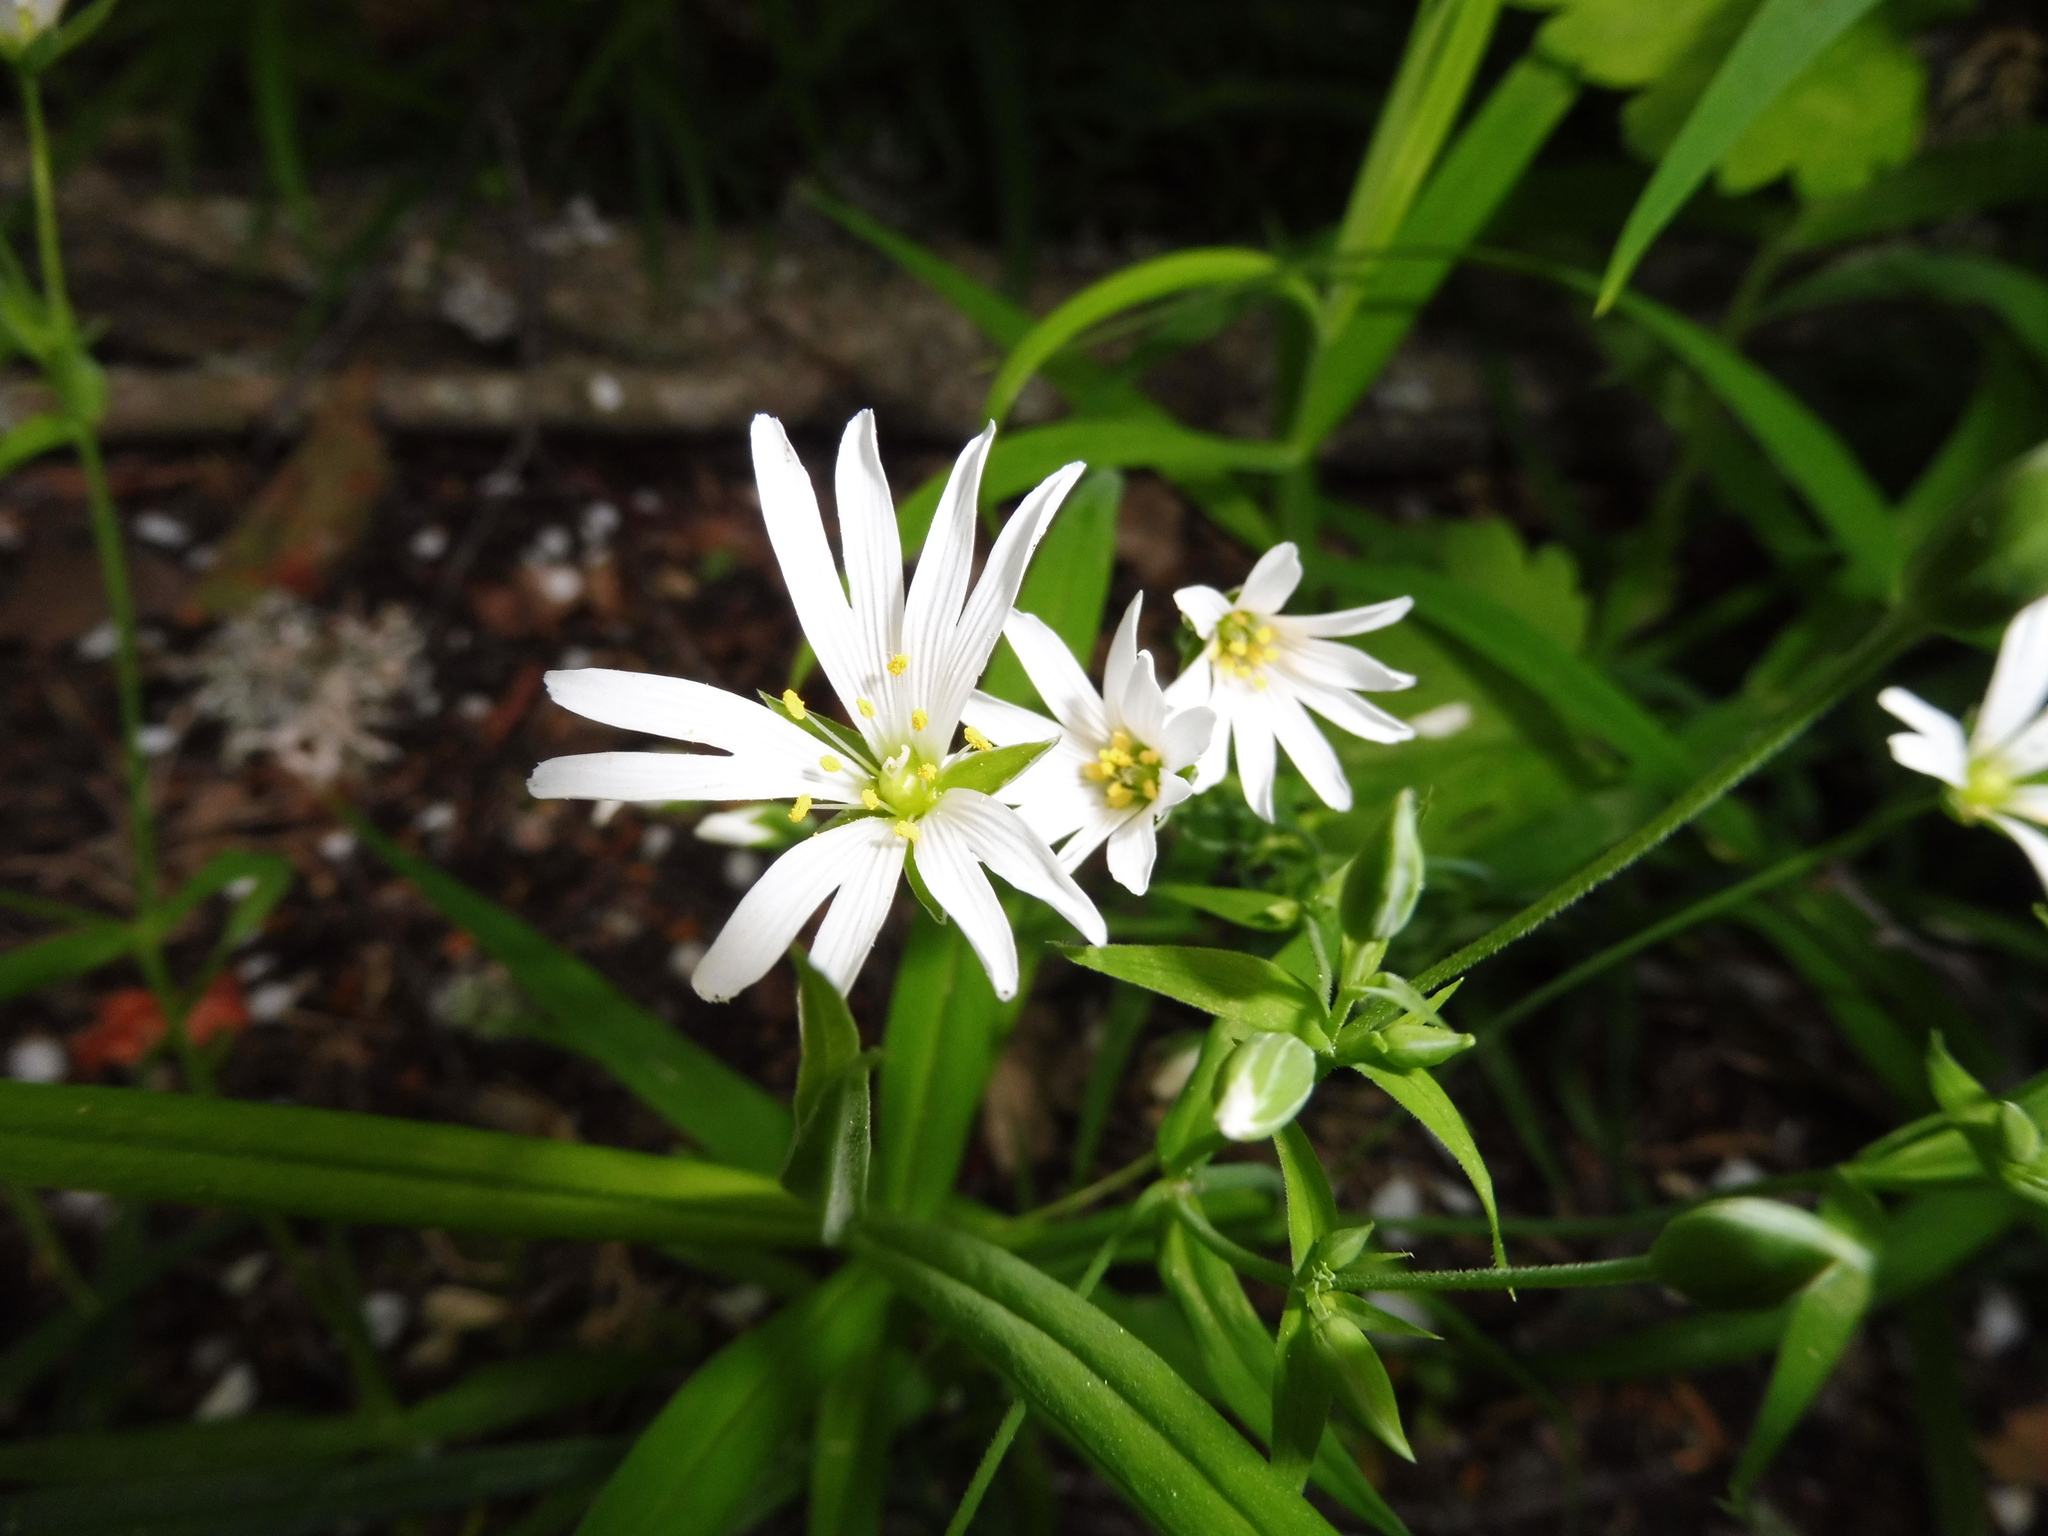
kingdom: Plantae
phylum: Tracheophyta
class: Magnoliopsida
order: Caryophyllales
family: Caryophyllaceae
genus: Rabelera
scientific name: Rabelera holostea
